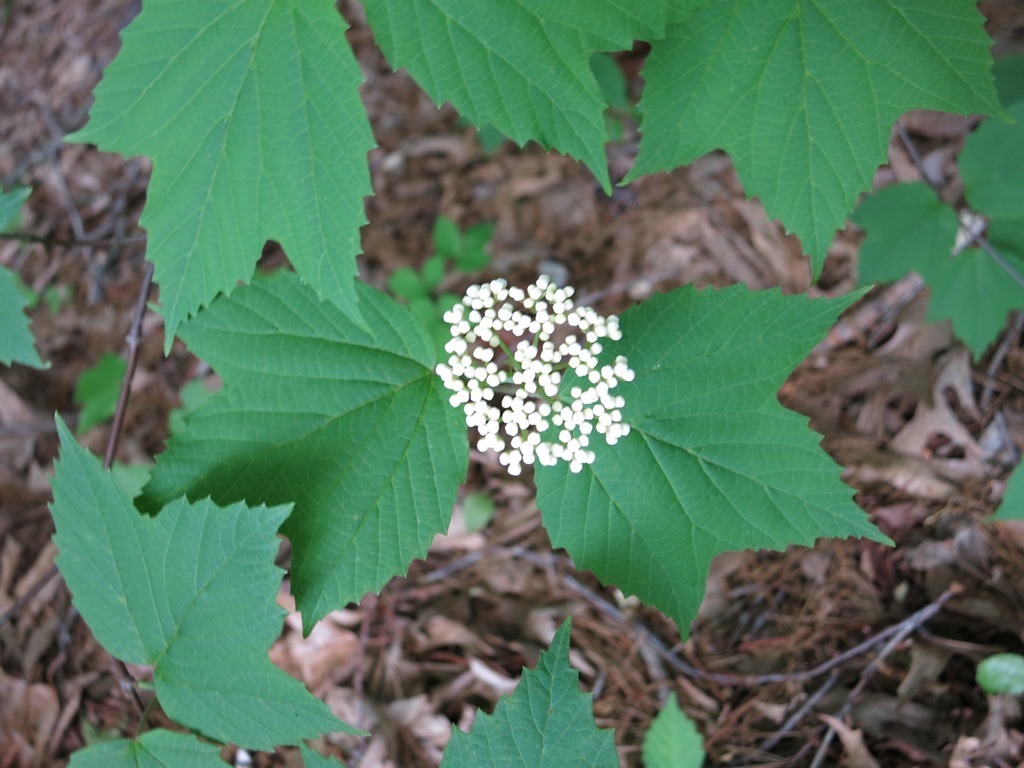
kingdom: Plantae
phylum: Tracheophyta
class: Magnoliopsida
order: Dipsacales
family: Viburnaceae
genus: Viburnum
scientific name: Viburnum acerifolium
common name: Dockmackie
